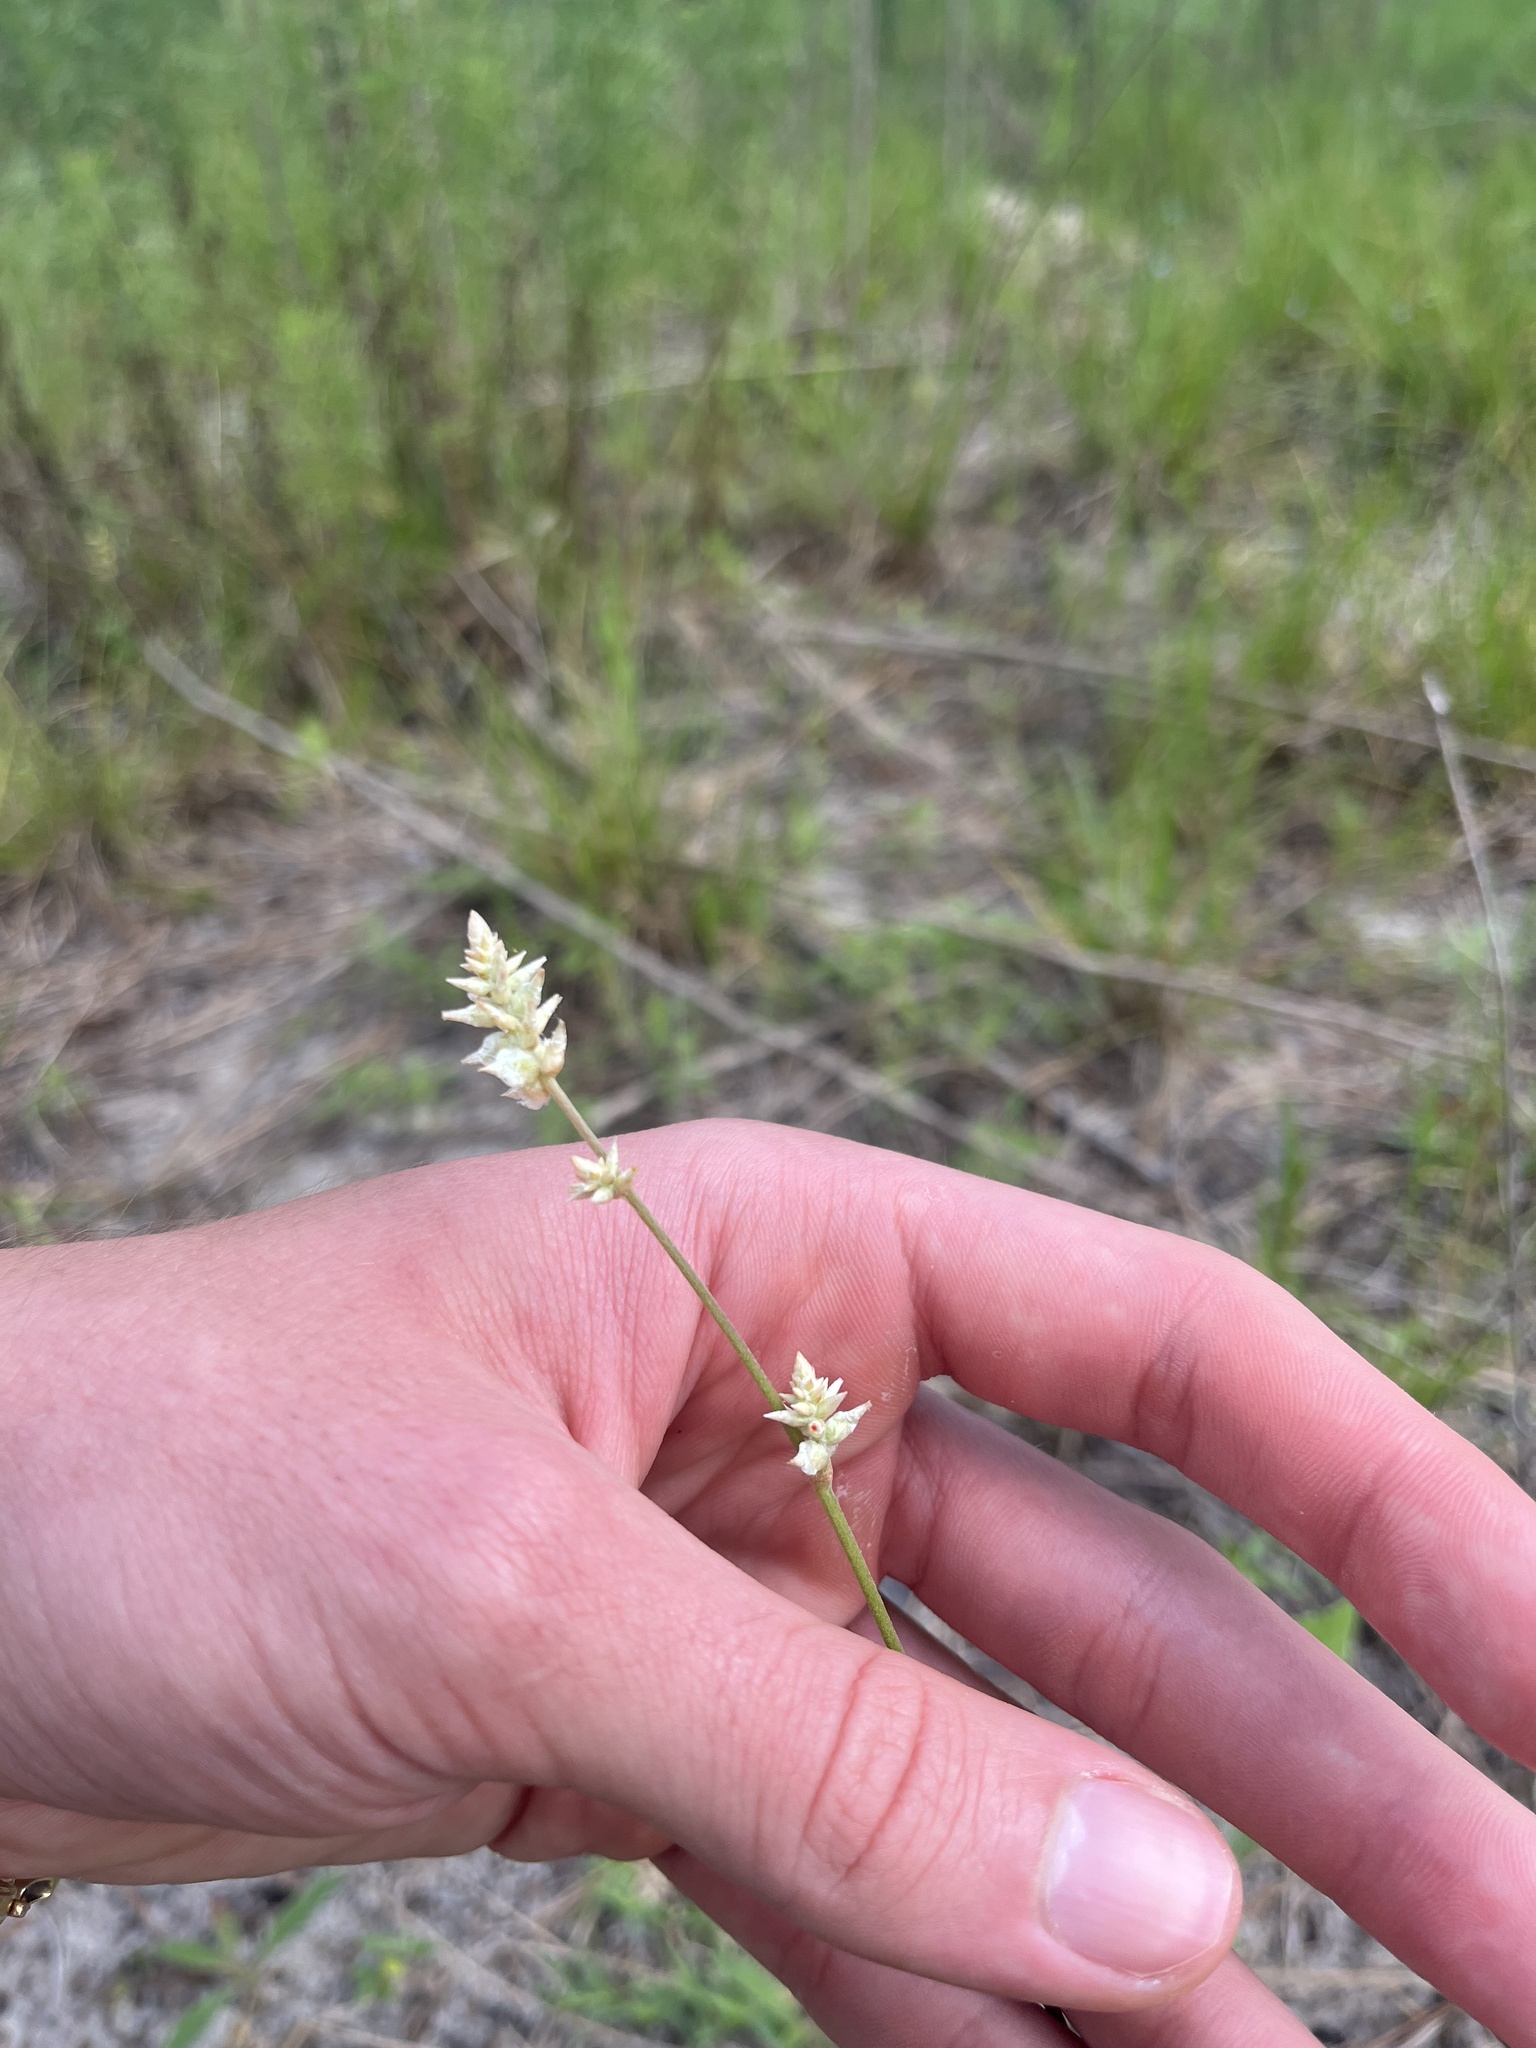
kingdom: Plantae
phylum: Tracheophyta
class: Magnoliopsida
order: Caryophyllales
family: Amaranthaceae
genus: Froelichia
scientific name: Froelichia floridana
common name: Florida snake-cotton
